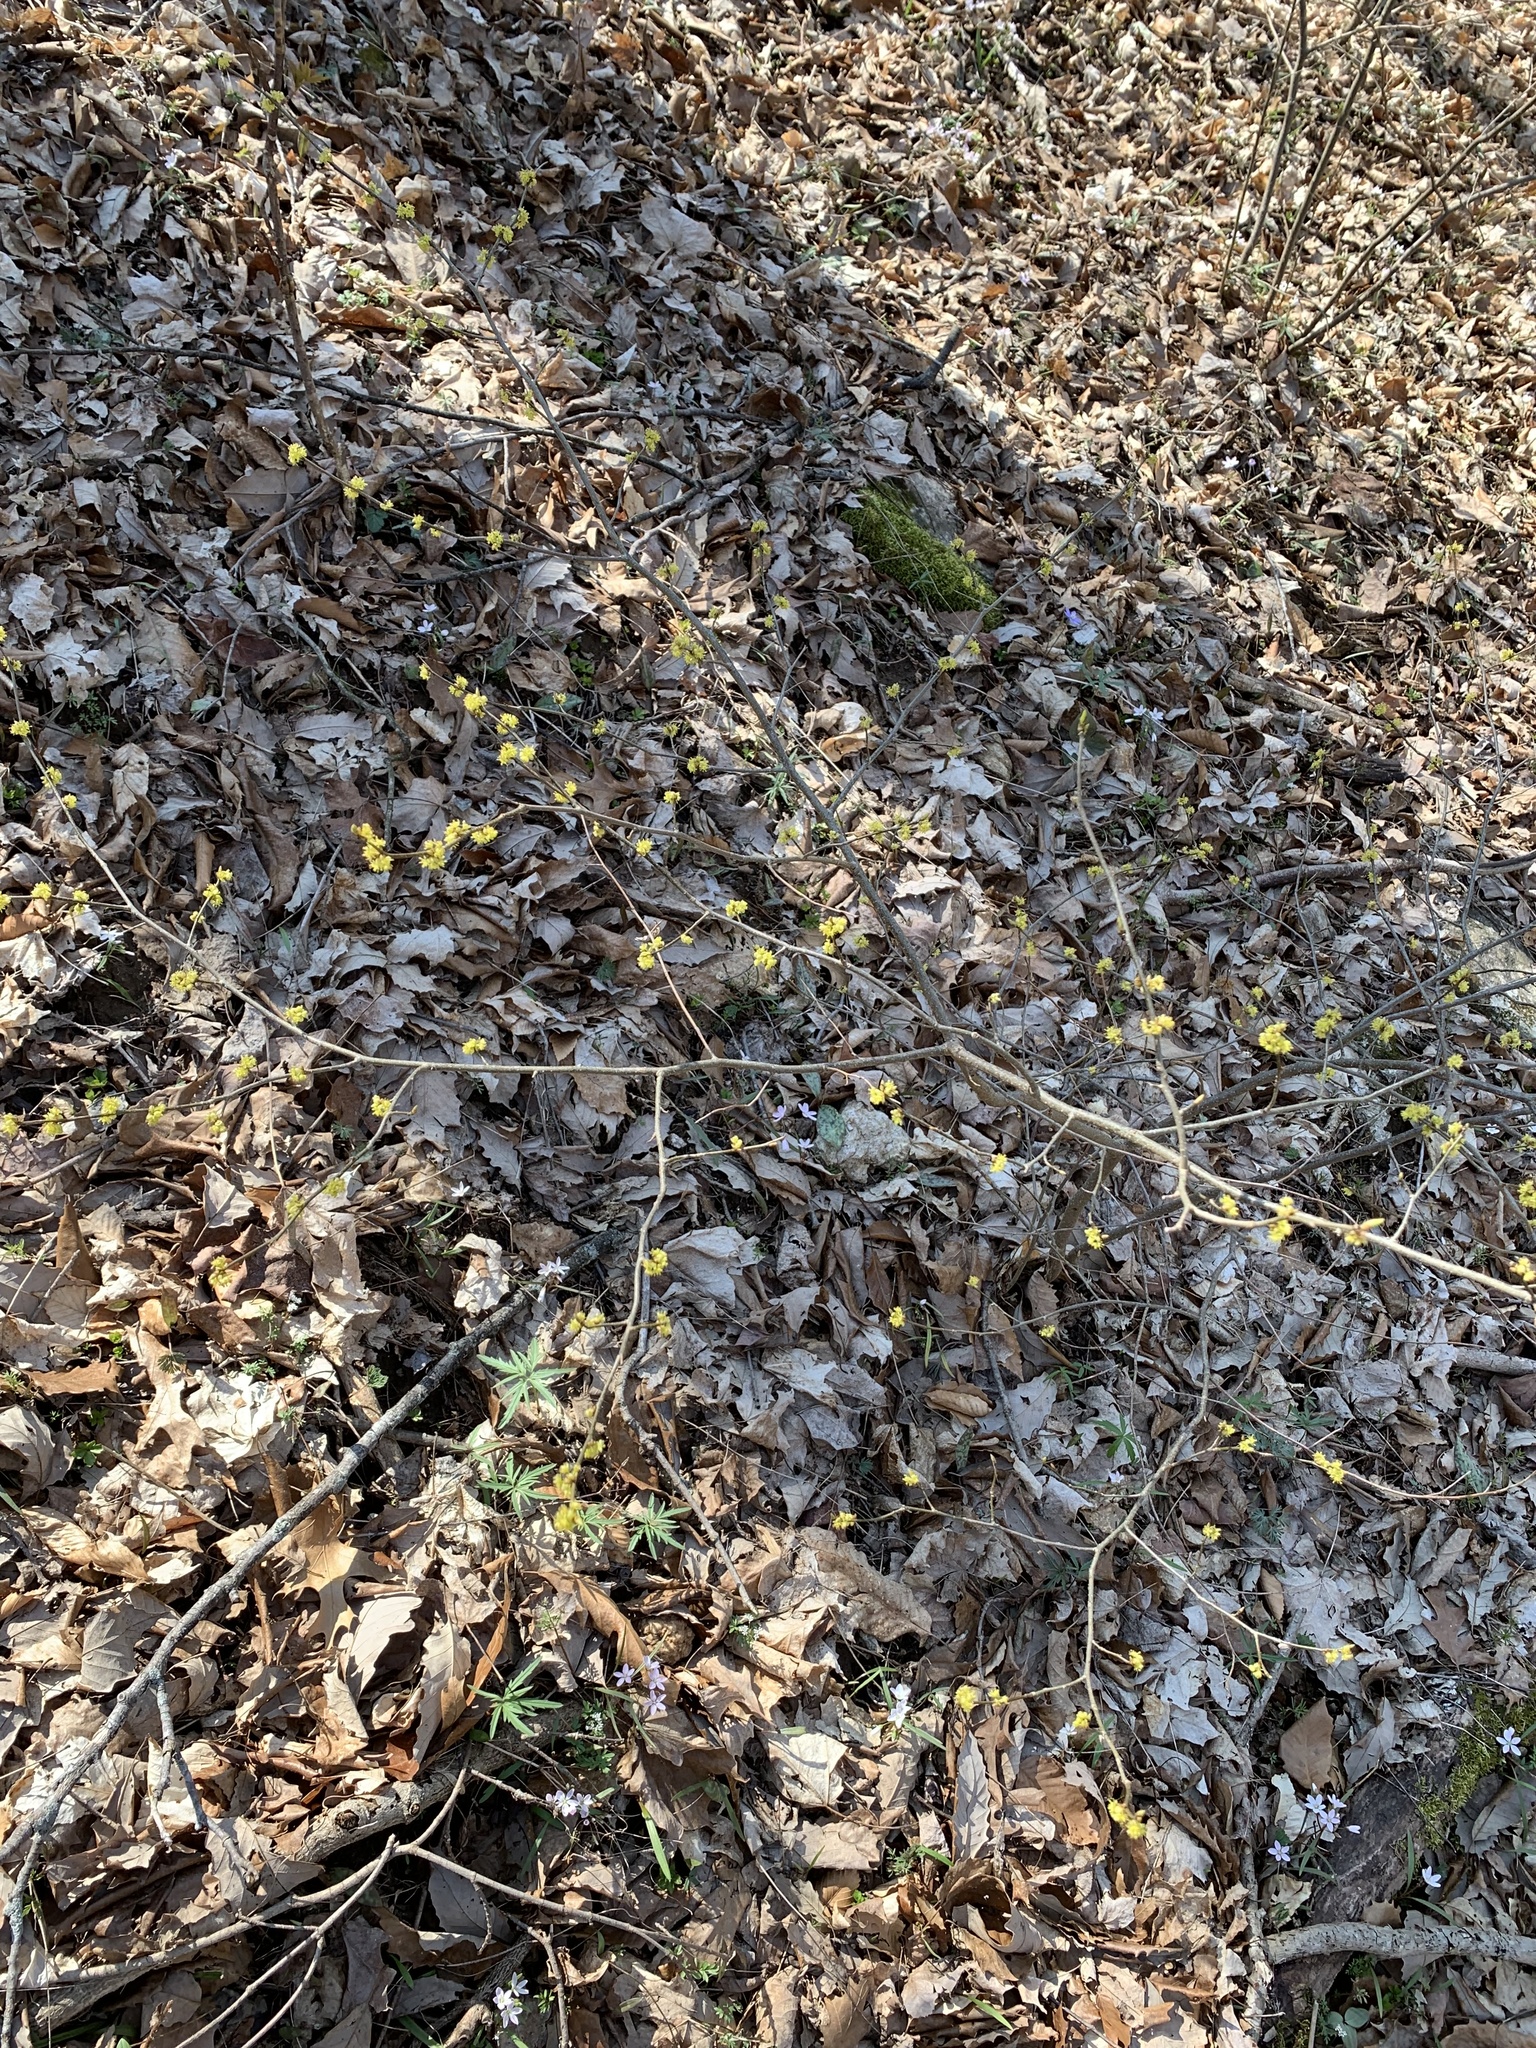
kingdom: Plantae
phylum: Tracheophyta
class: Magnoliopsida
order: Laurales
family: Lauraceae
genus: Lindera
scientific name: Lindera benzoin
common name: Spicebush
